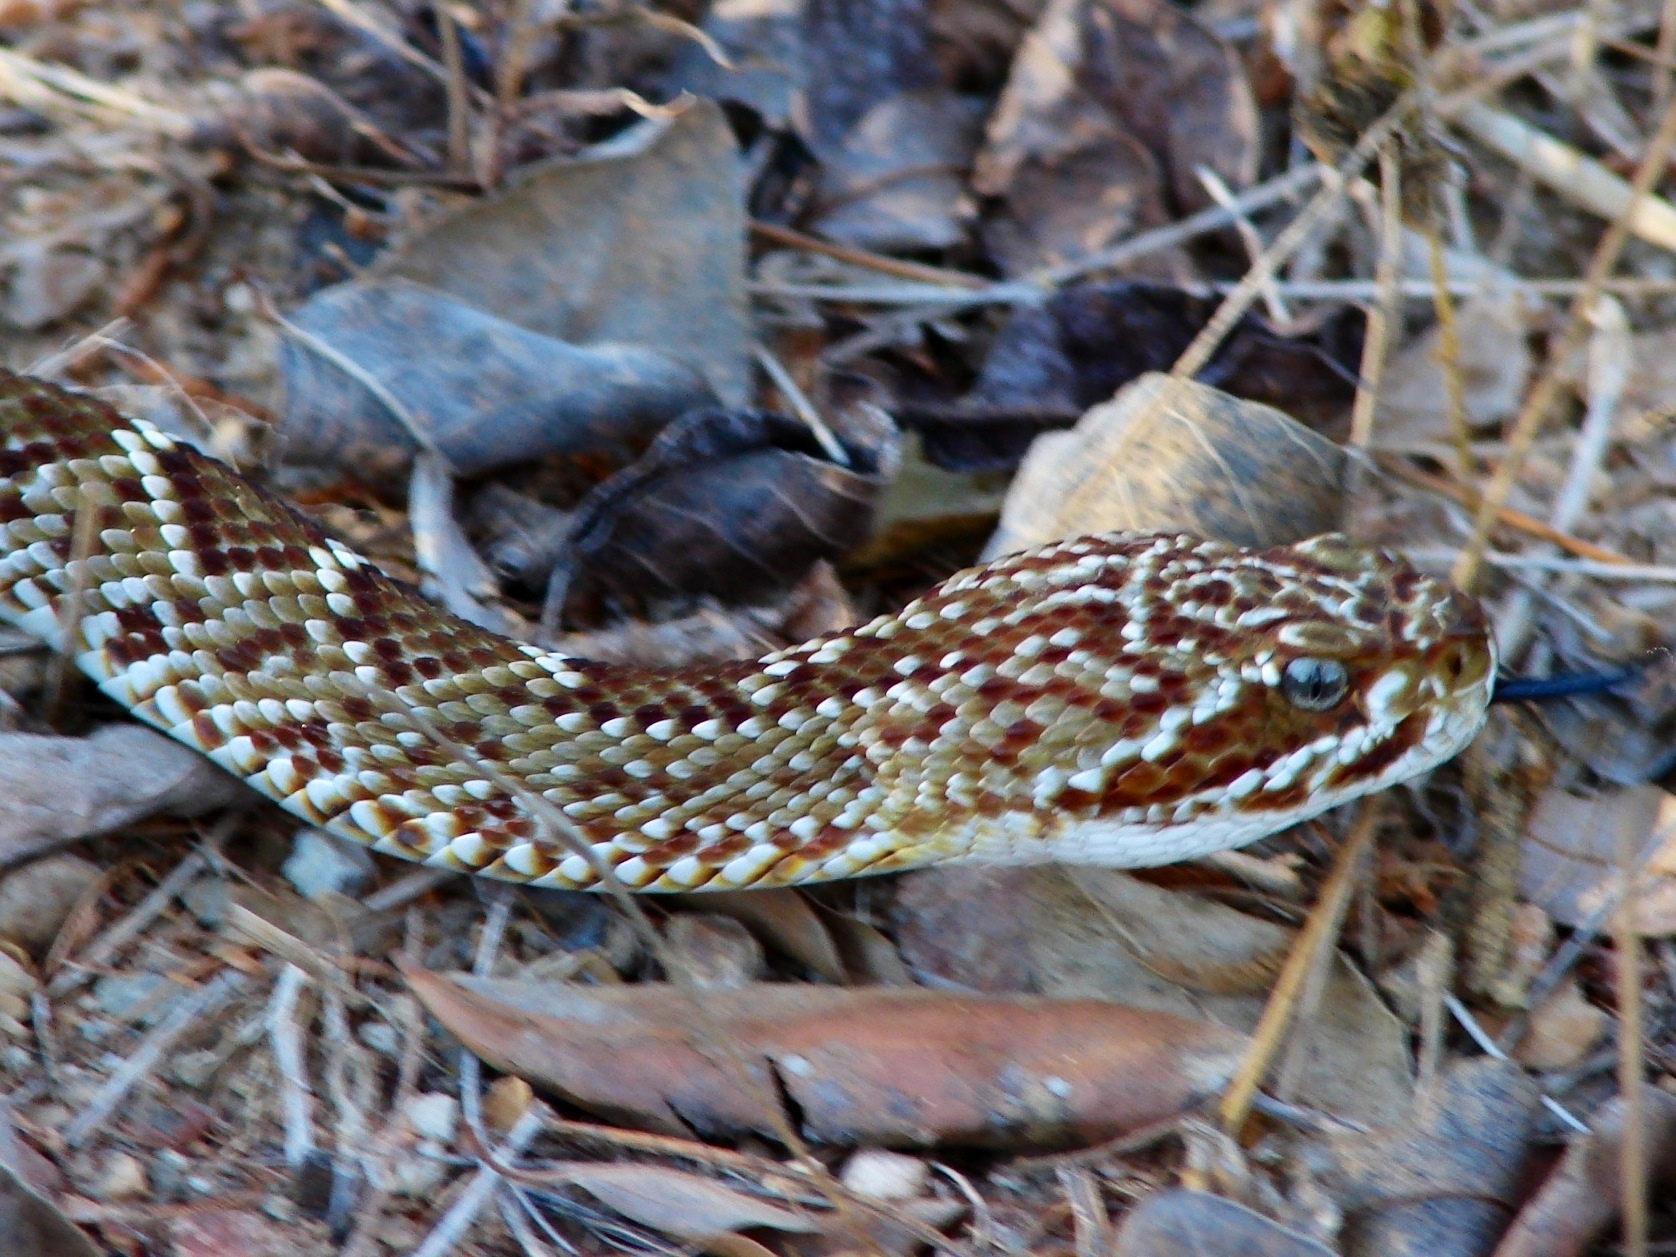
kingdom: Animalia
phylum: Chordata
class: Squamata
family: Viperidae
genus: Crotalus
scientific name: Crotalus basiliscus
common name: Basilisk rattlesnake
